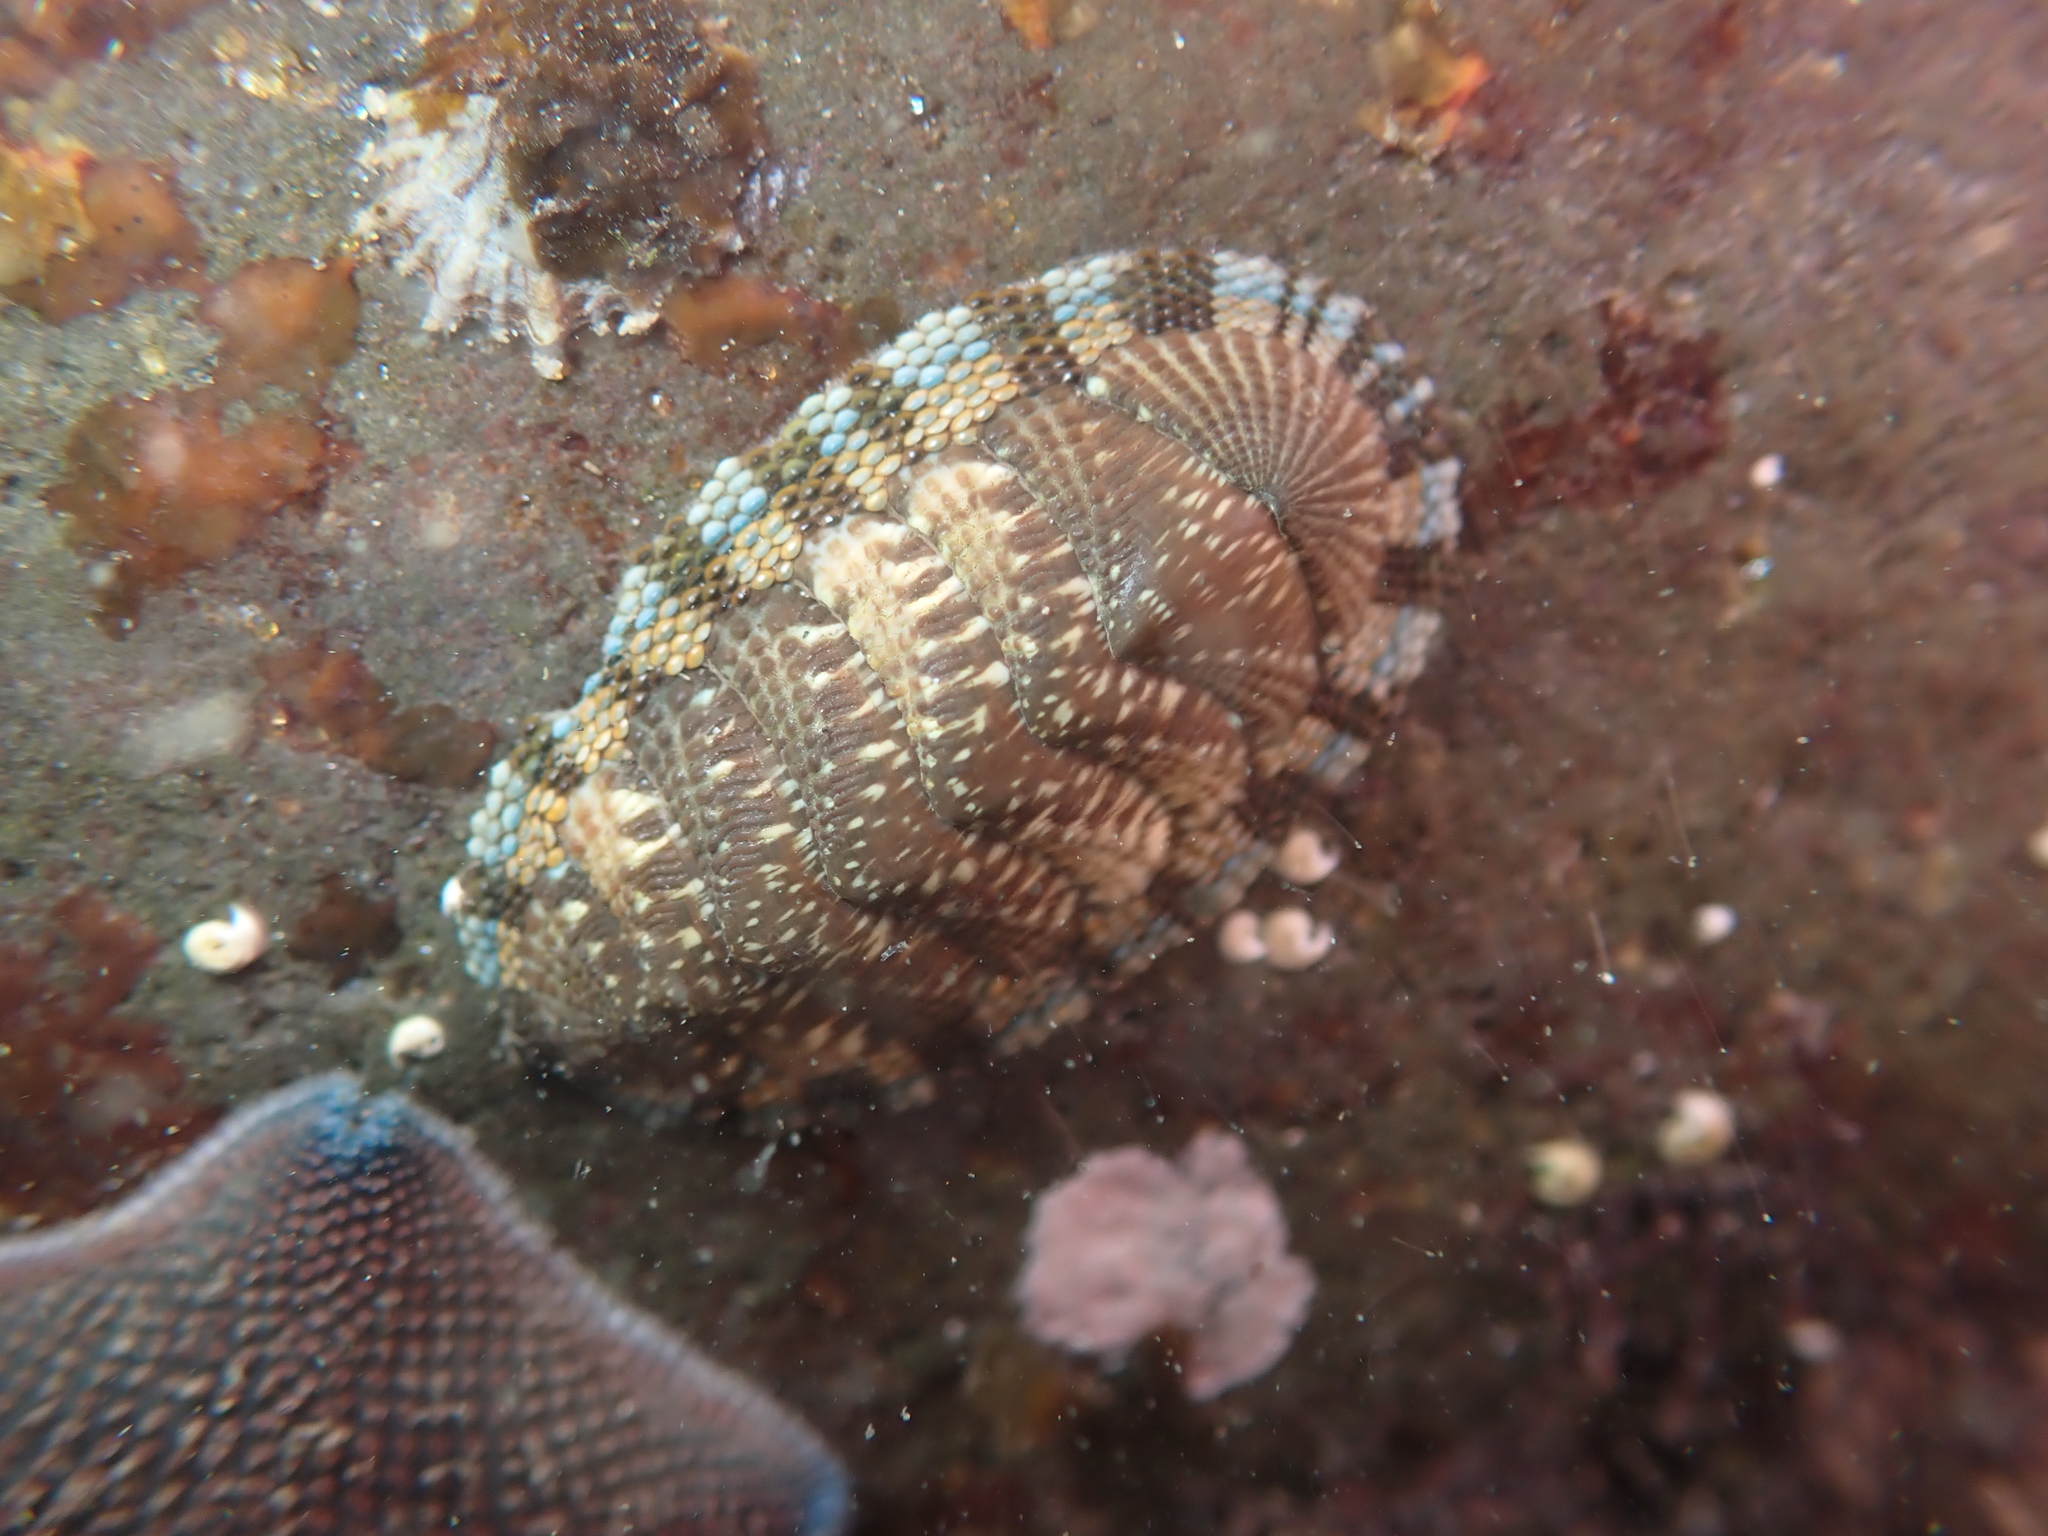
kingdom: Animalia
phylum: Mollusca
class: Polyplacophora
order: Chitonida
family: Chitonidae
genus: Sypharochiton
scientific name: Sypharochiton sinclairi
